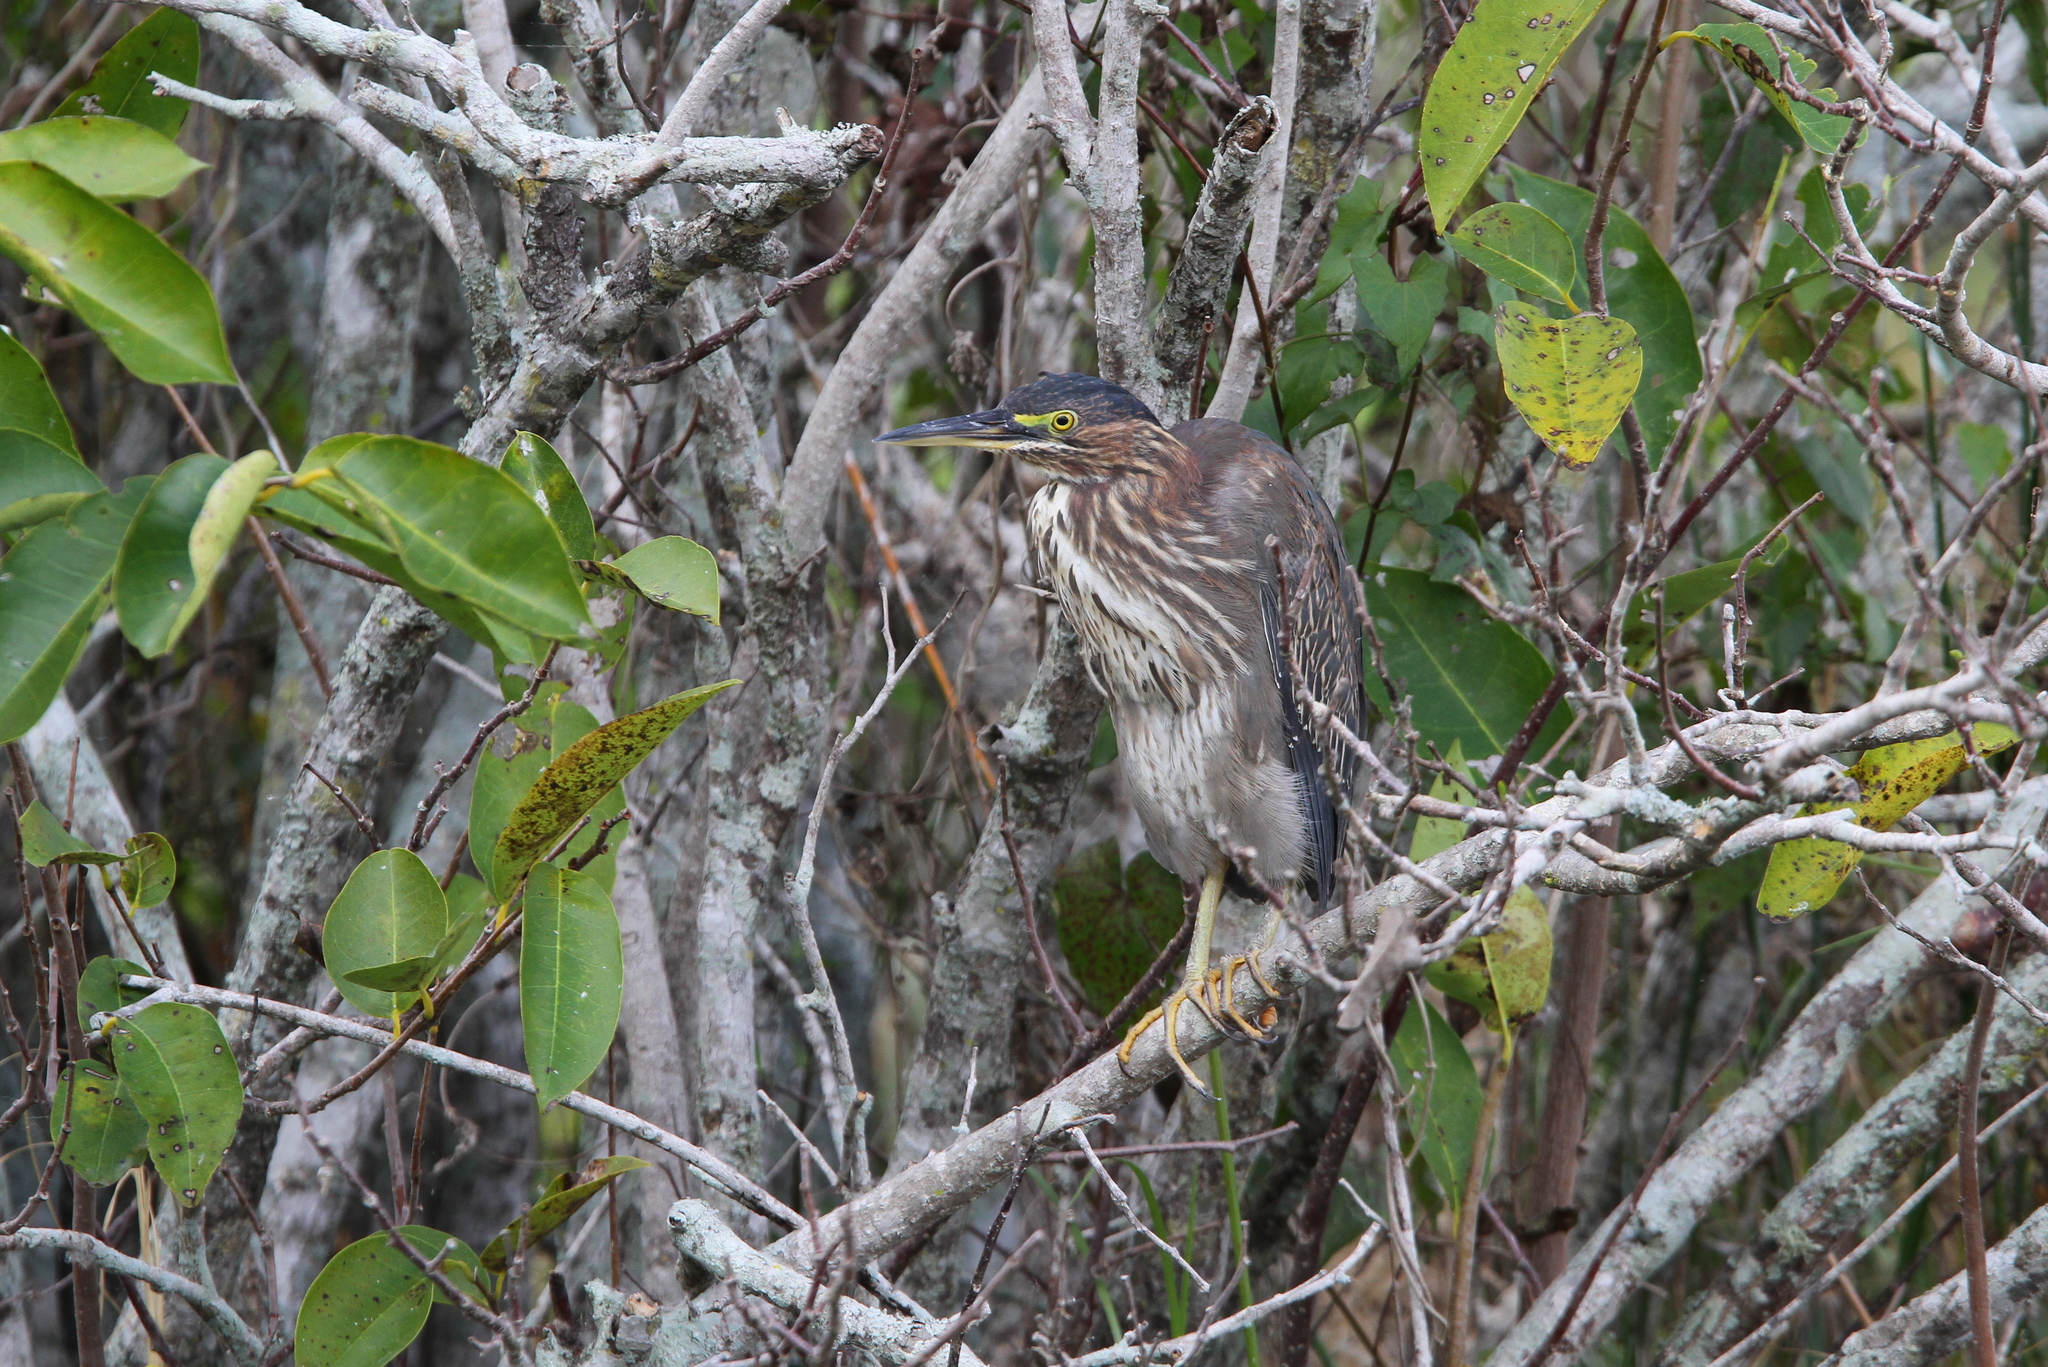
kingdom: Animalia
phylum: Chordata
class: Aves
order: Pelecaniformes
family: Ardeidae
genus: Butorides
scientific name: Butorides virescens
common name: Green heron
